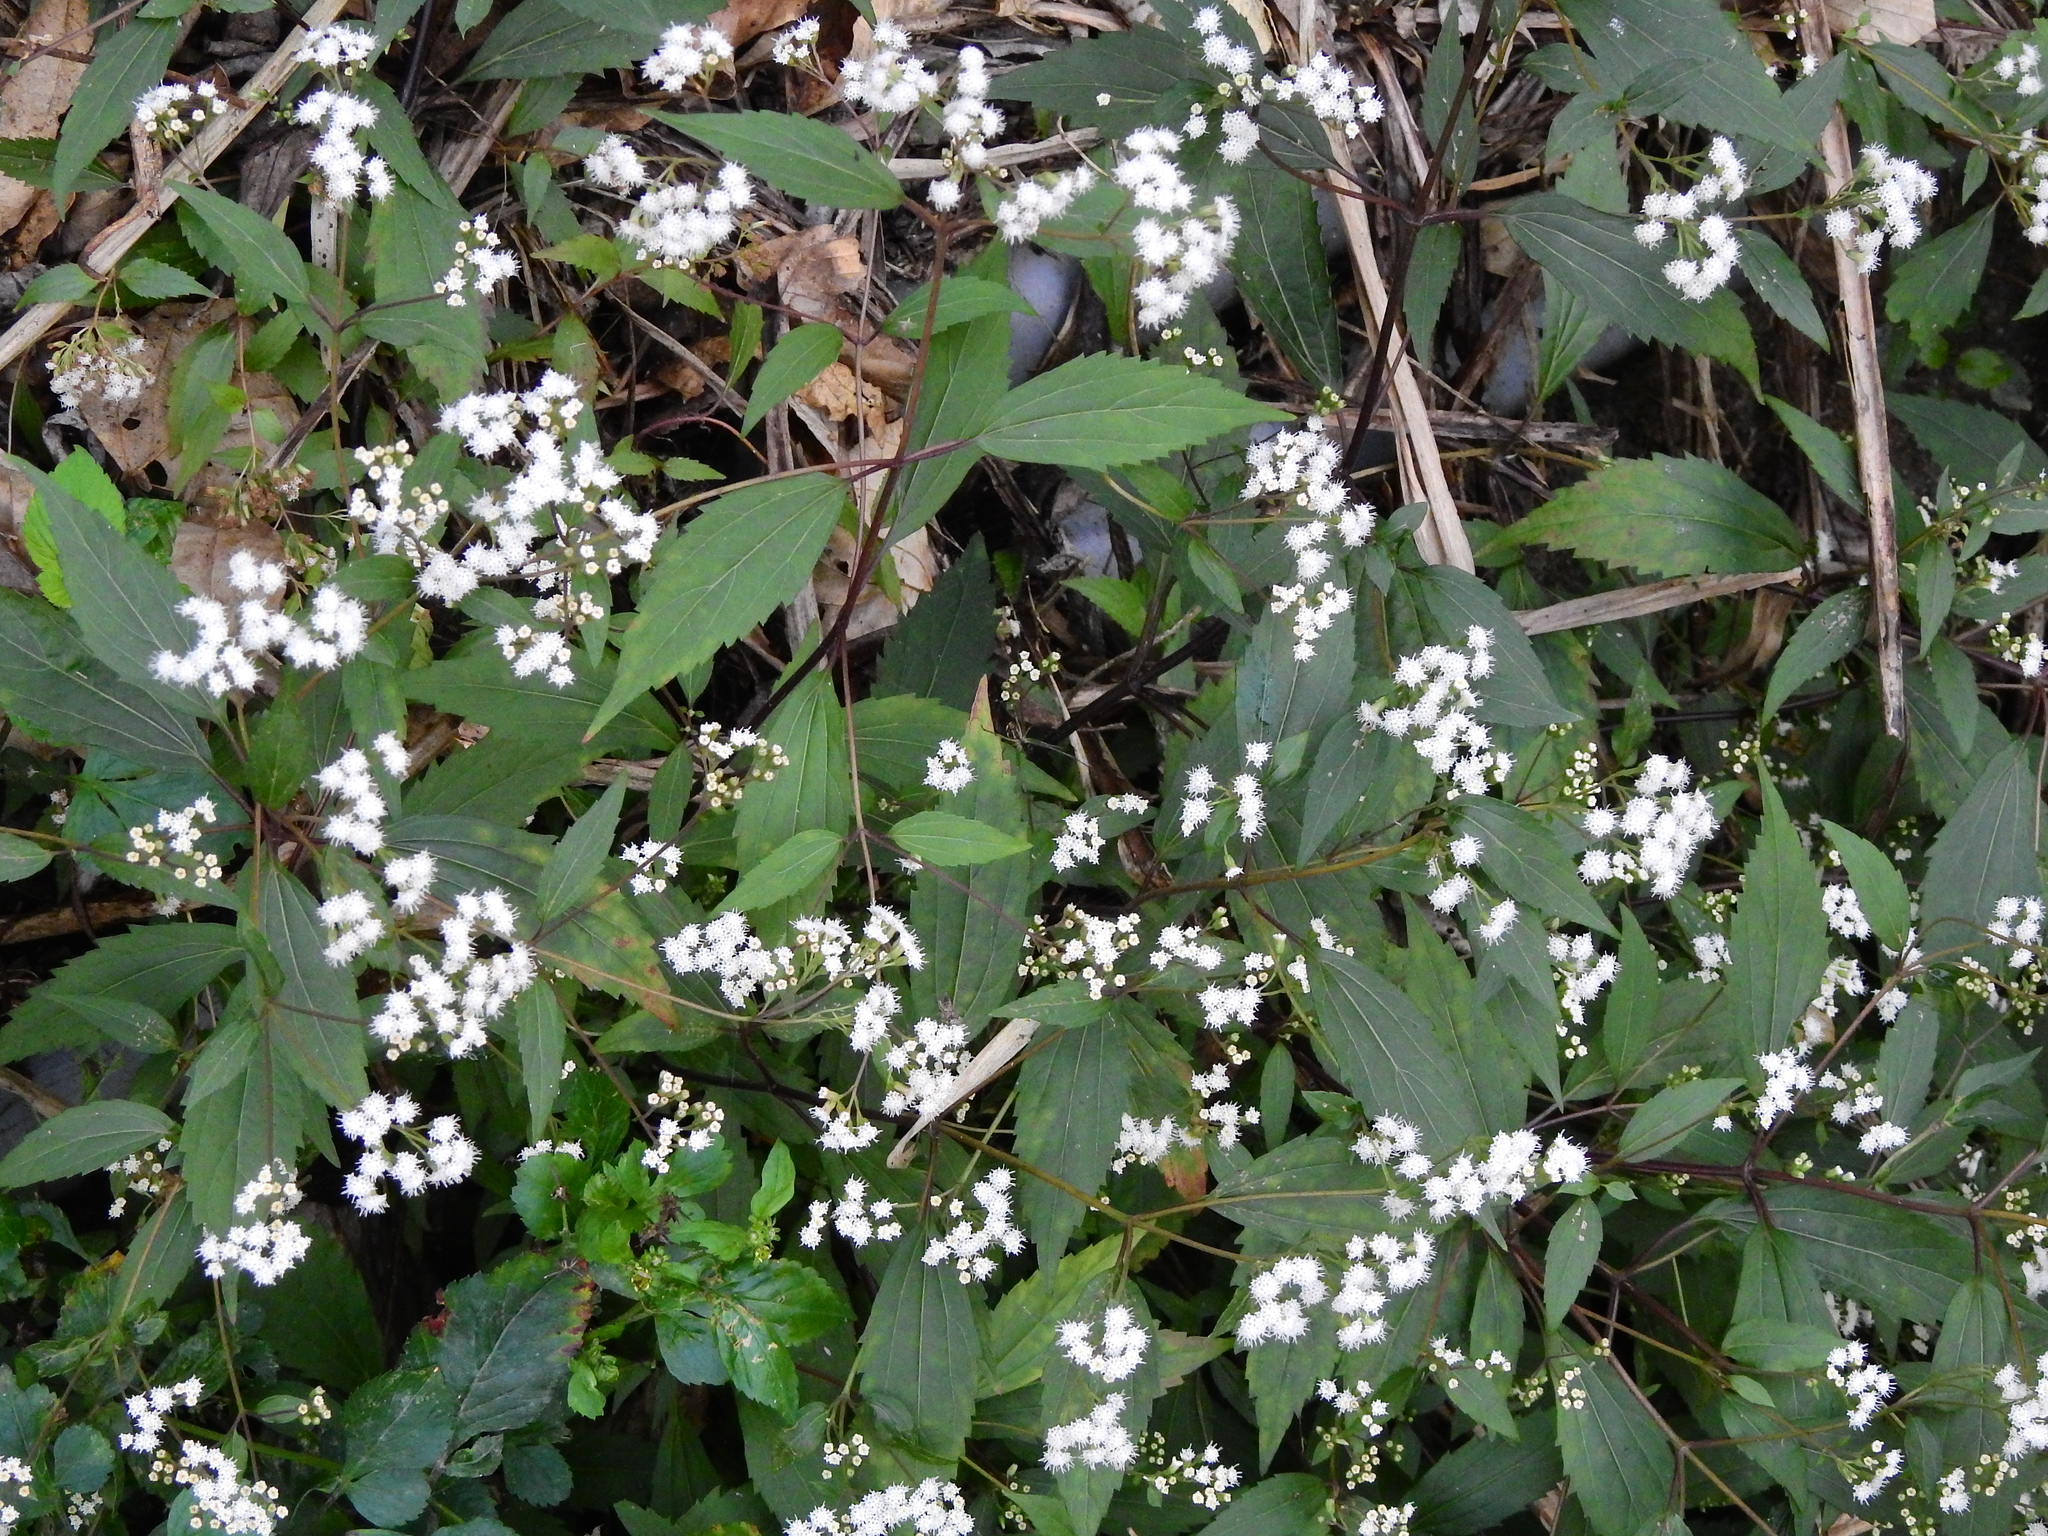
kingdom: Plantae
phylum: Tracheophyta
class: Magnoliopsida
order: Asterales
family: Asteraceae
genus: Ageratina
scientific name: Ageratina riparia
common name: Creeping croftonweed
